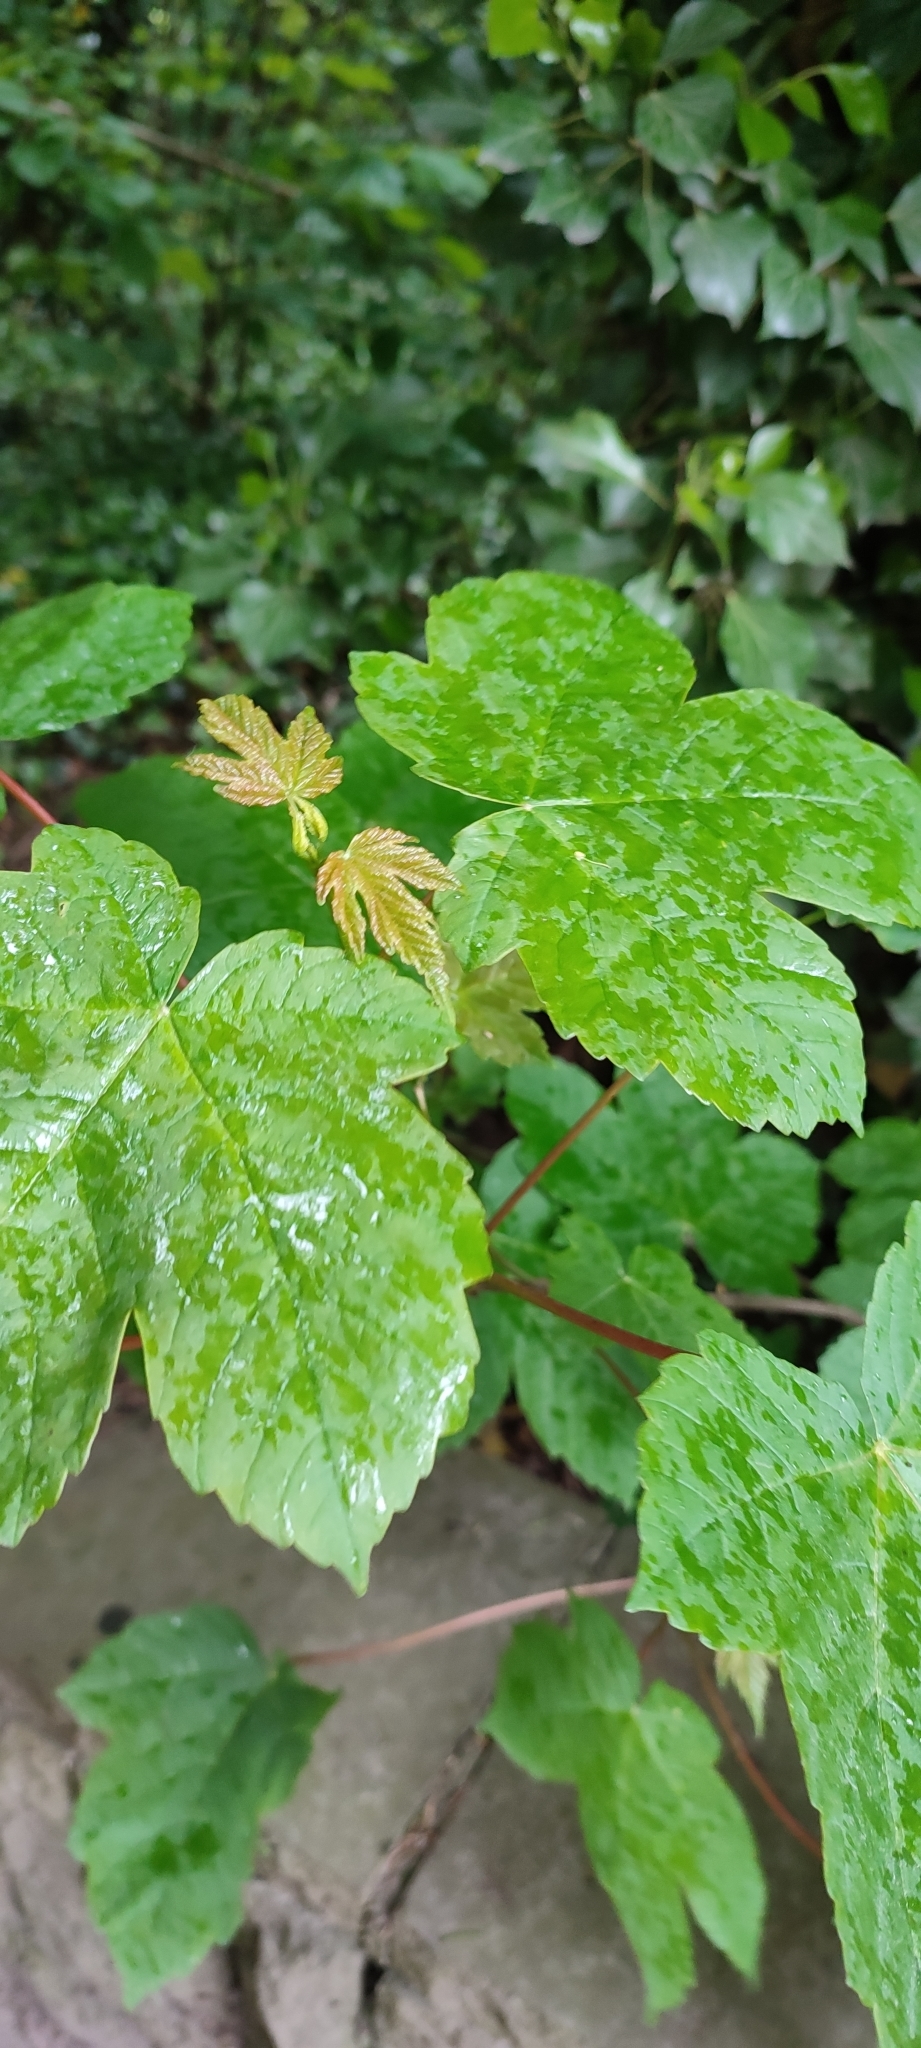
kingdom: Plantae
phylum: Tracheophyta
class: Magnoliopsida
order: Sapindales
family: Sapindaceae
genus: Acer
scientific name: Acer pseudoplatanus
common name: Sycamore
